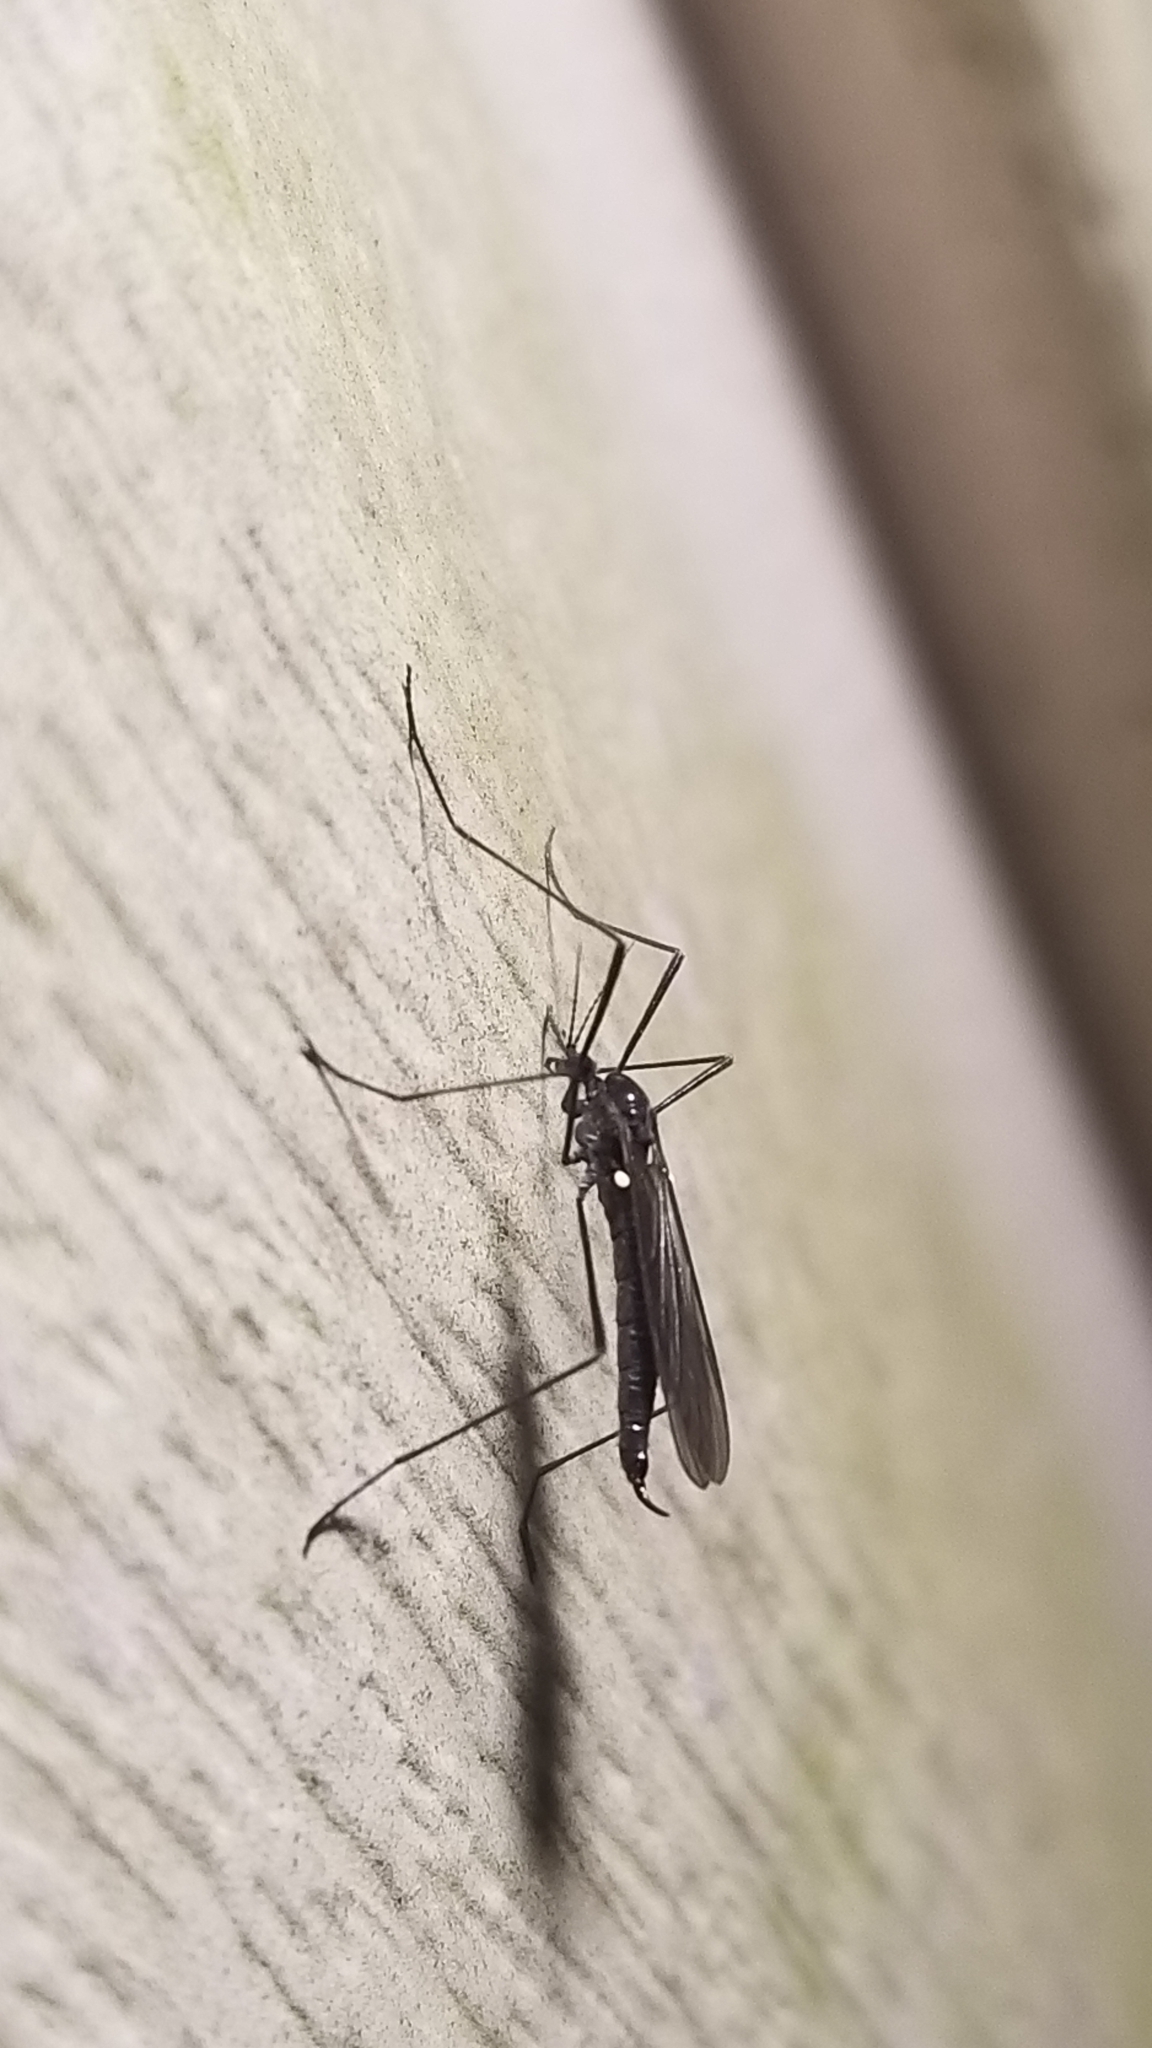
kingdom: Animalia
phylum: Arthropoda
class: Insecta
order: Diptera
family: Limoniidae
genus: Gnophomyia
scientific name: Gnophomyia tristissima
